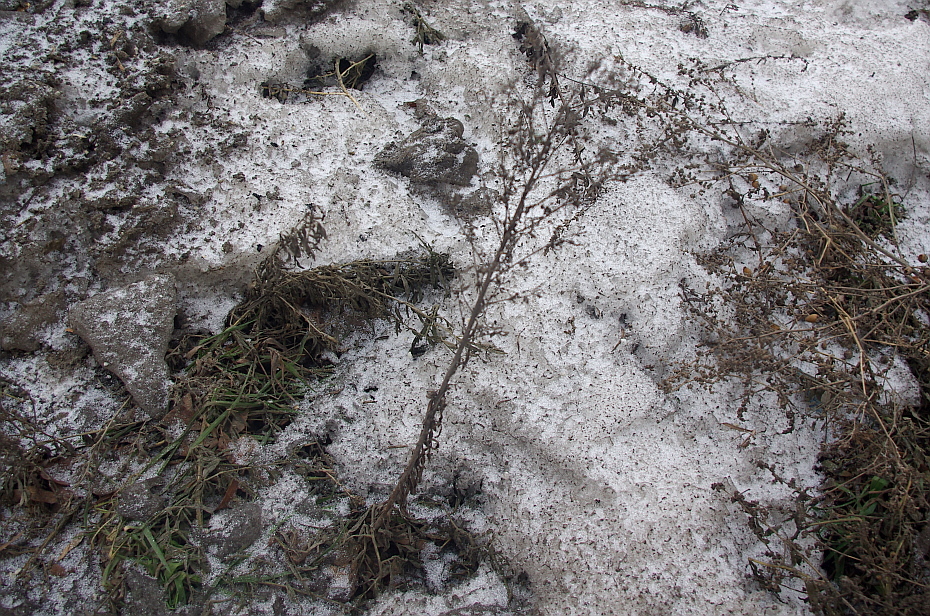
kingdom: Plantae
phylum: Tracheophyta
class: Magnoliopsida
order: Asterales
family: Asteraceae
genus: Erigeron
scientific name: Erigeron canadensis
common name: Canadian fleabane
